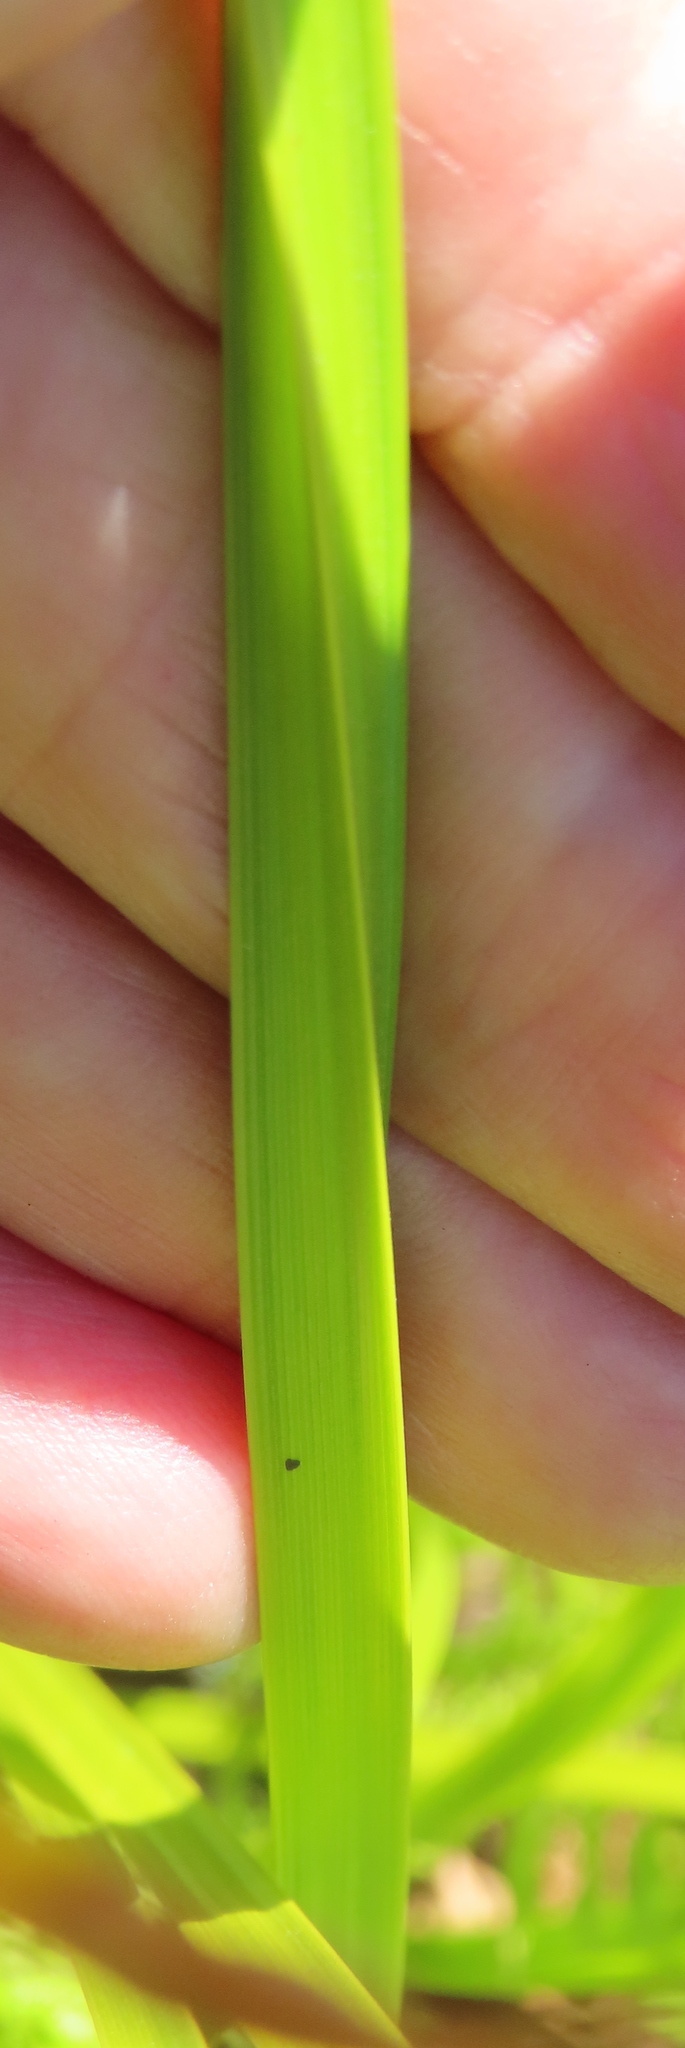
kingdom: Plantae
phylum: Tracheophyta
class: Liliopsida
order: Poales
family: Cyperaceae
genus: Cyperus
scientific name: Cyperus denudatus
